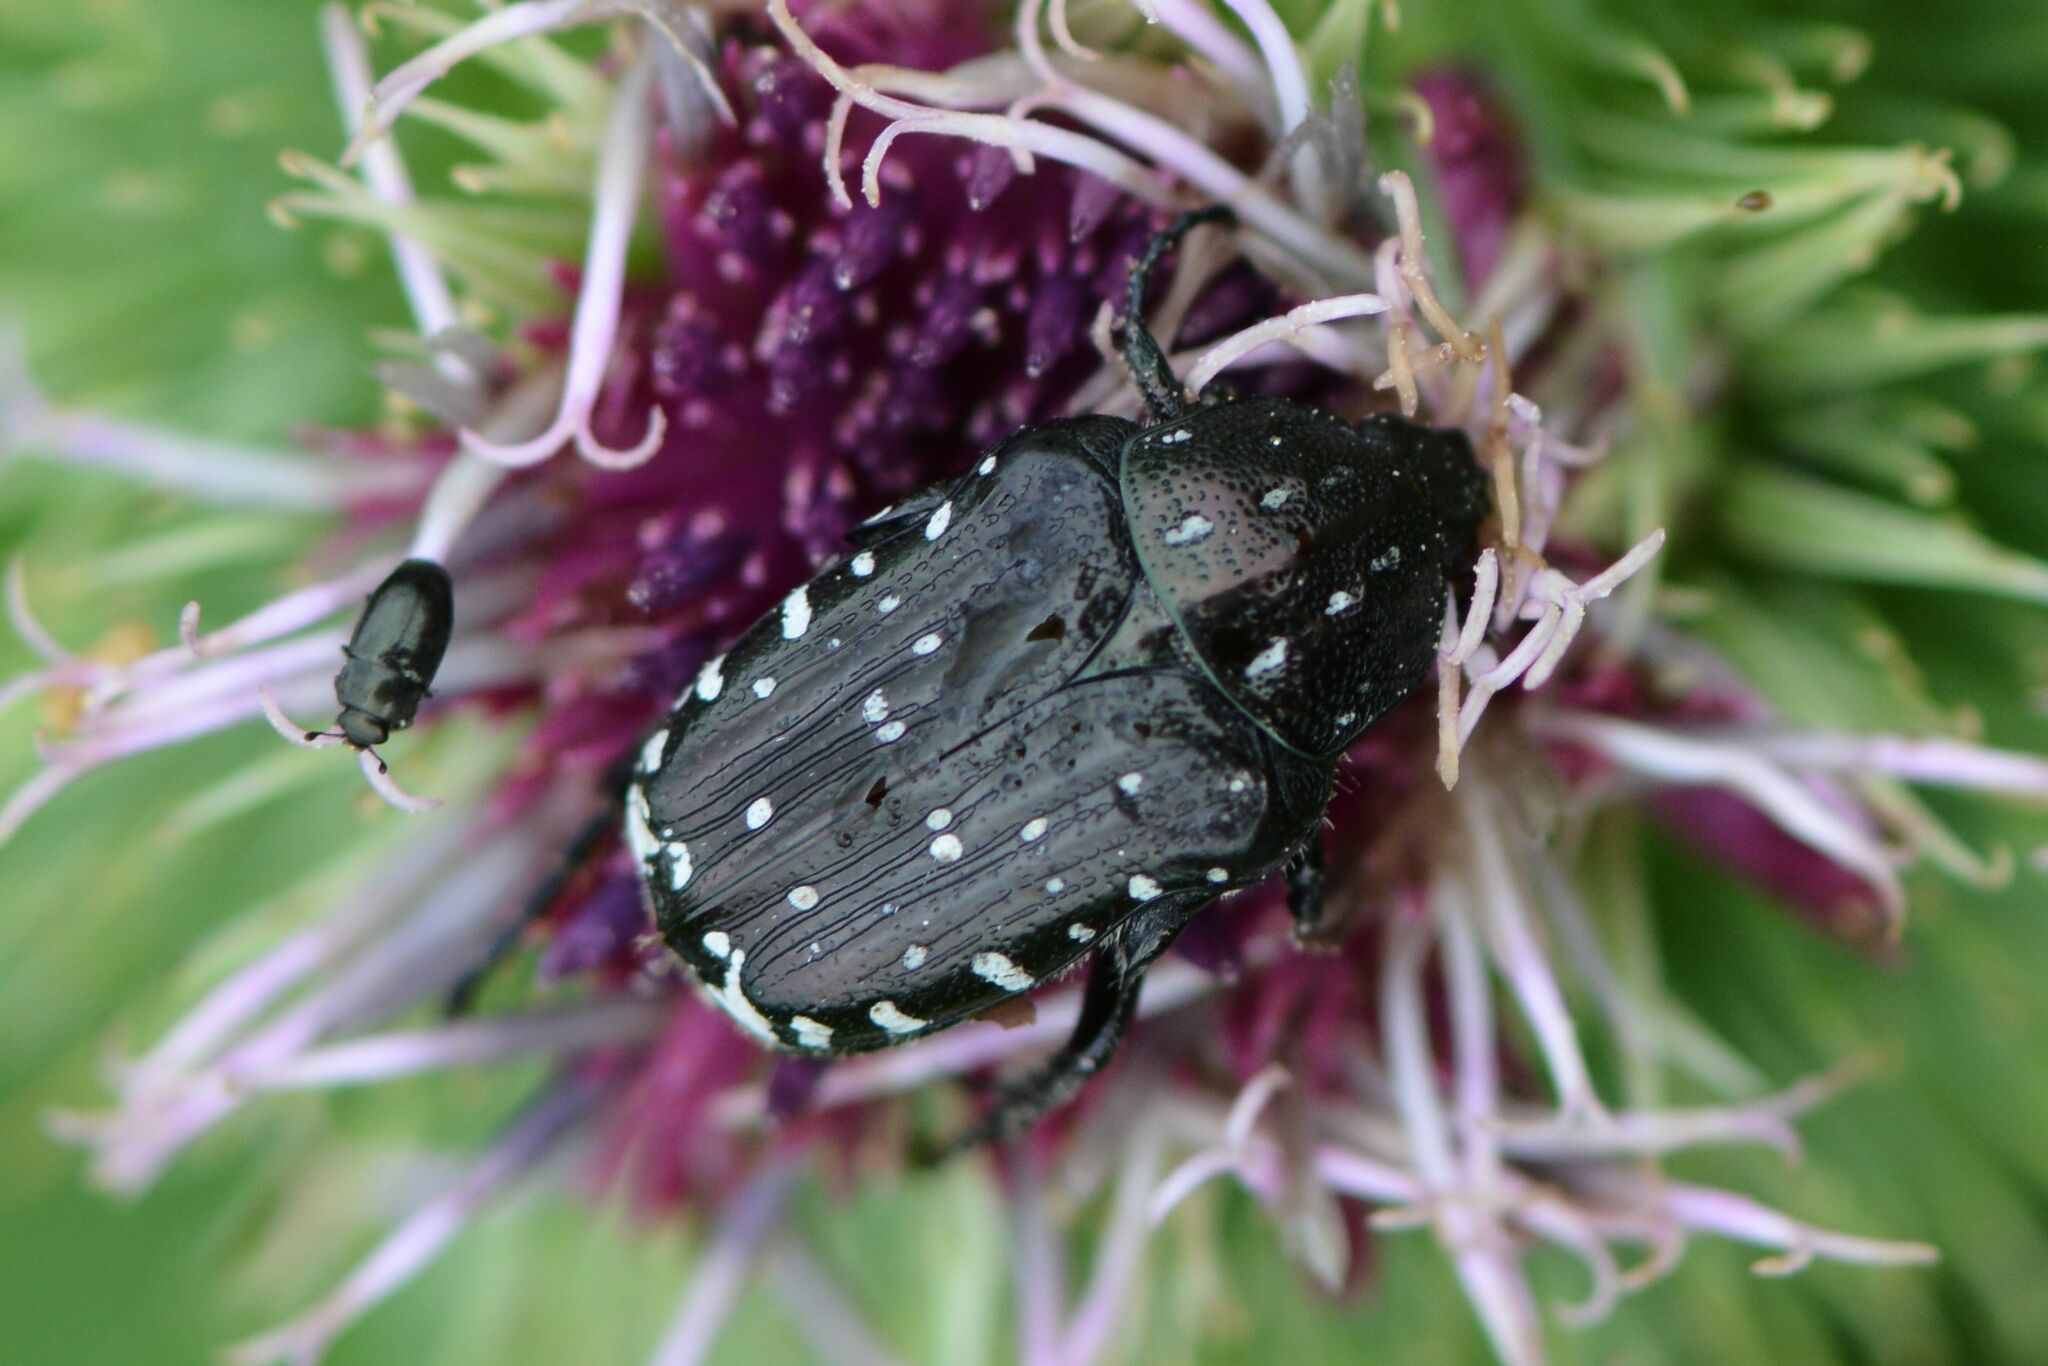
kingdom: Animalia
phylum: Arthropoda
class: Insecta
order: Coleoptera
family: Scarabaeidae
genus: Oxythyrea
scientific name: Oxythyrea funesta
